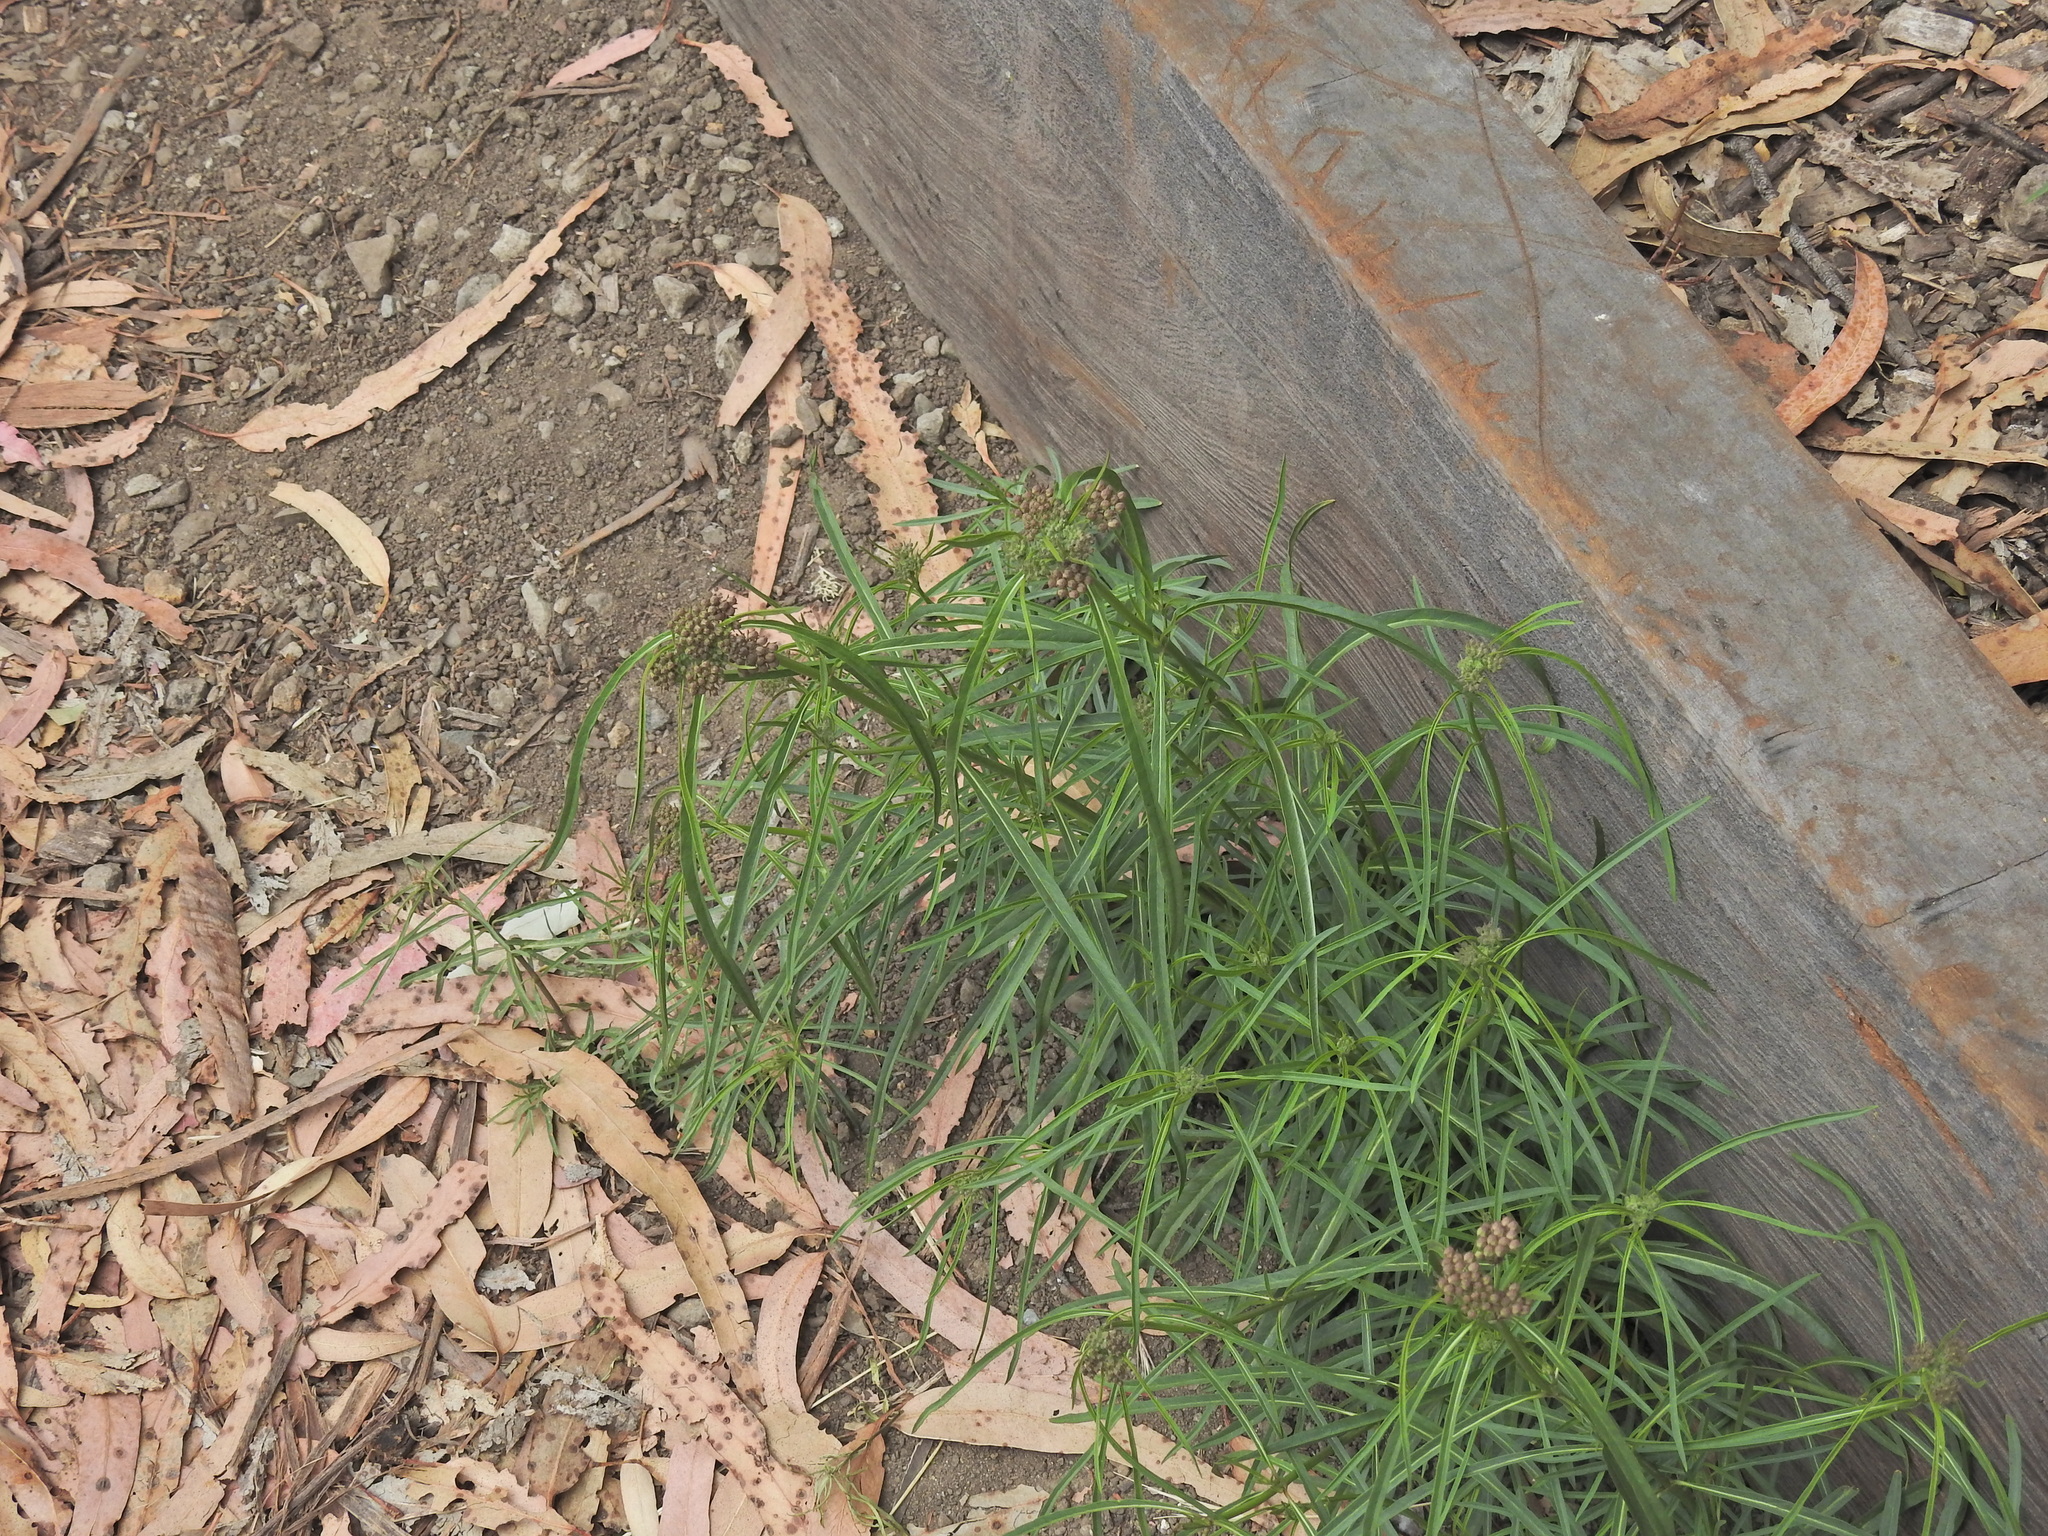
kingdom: Plantae
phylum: Tracheophyta
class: Magnoliopsida
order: Gentianales
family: Apocynaceae
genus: Asclepias
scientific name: Asclepias fascicularis
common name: Mexican milkweed
